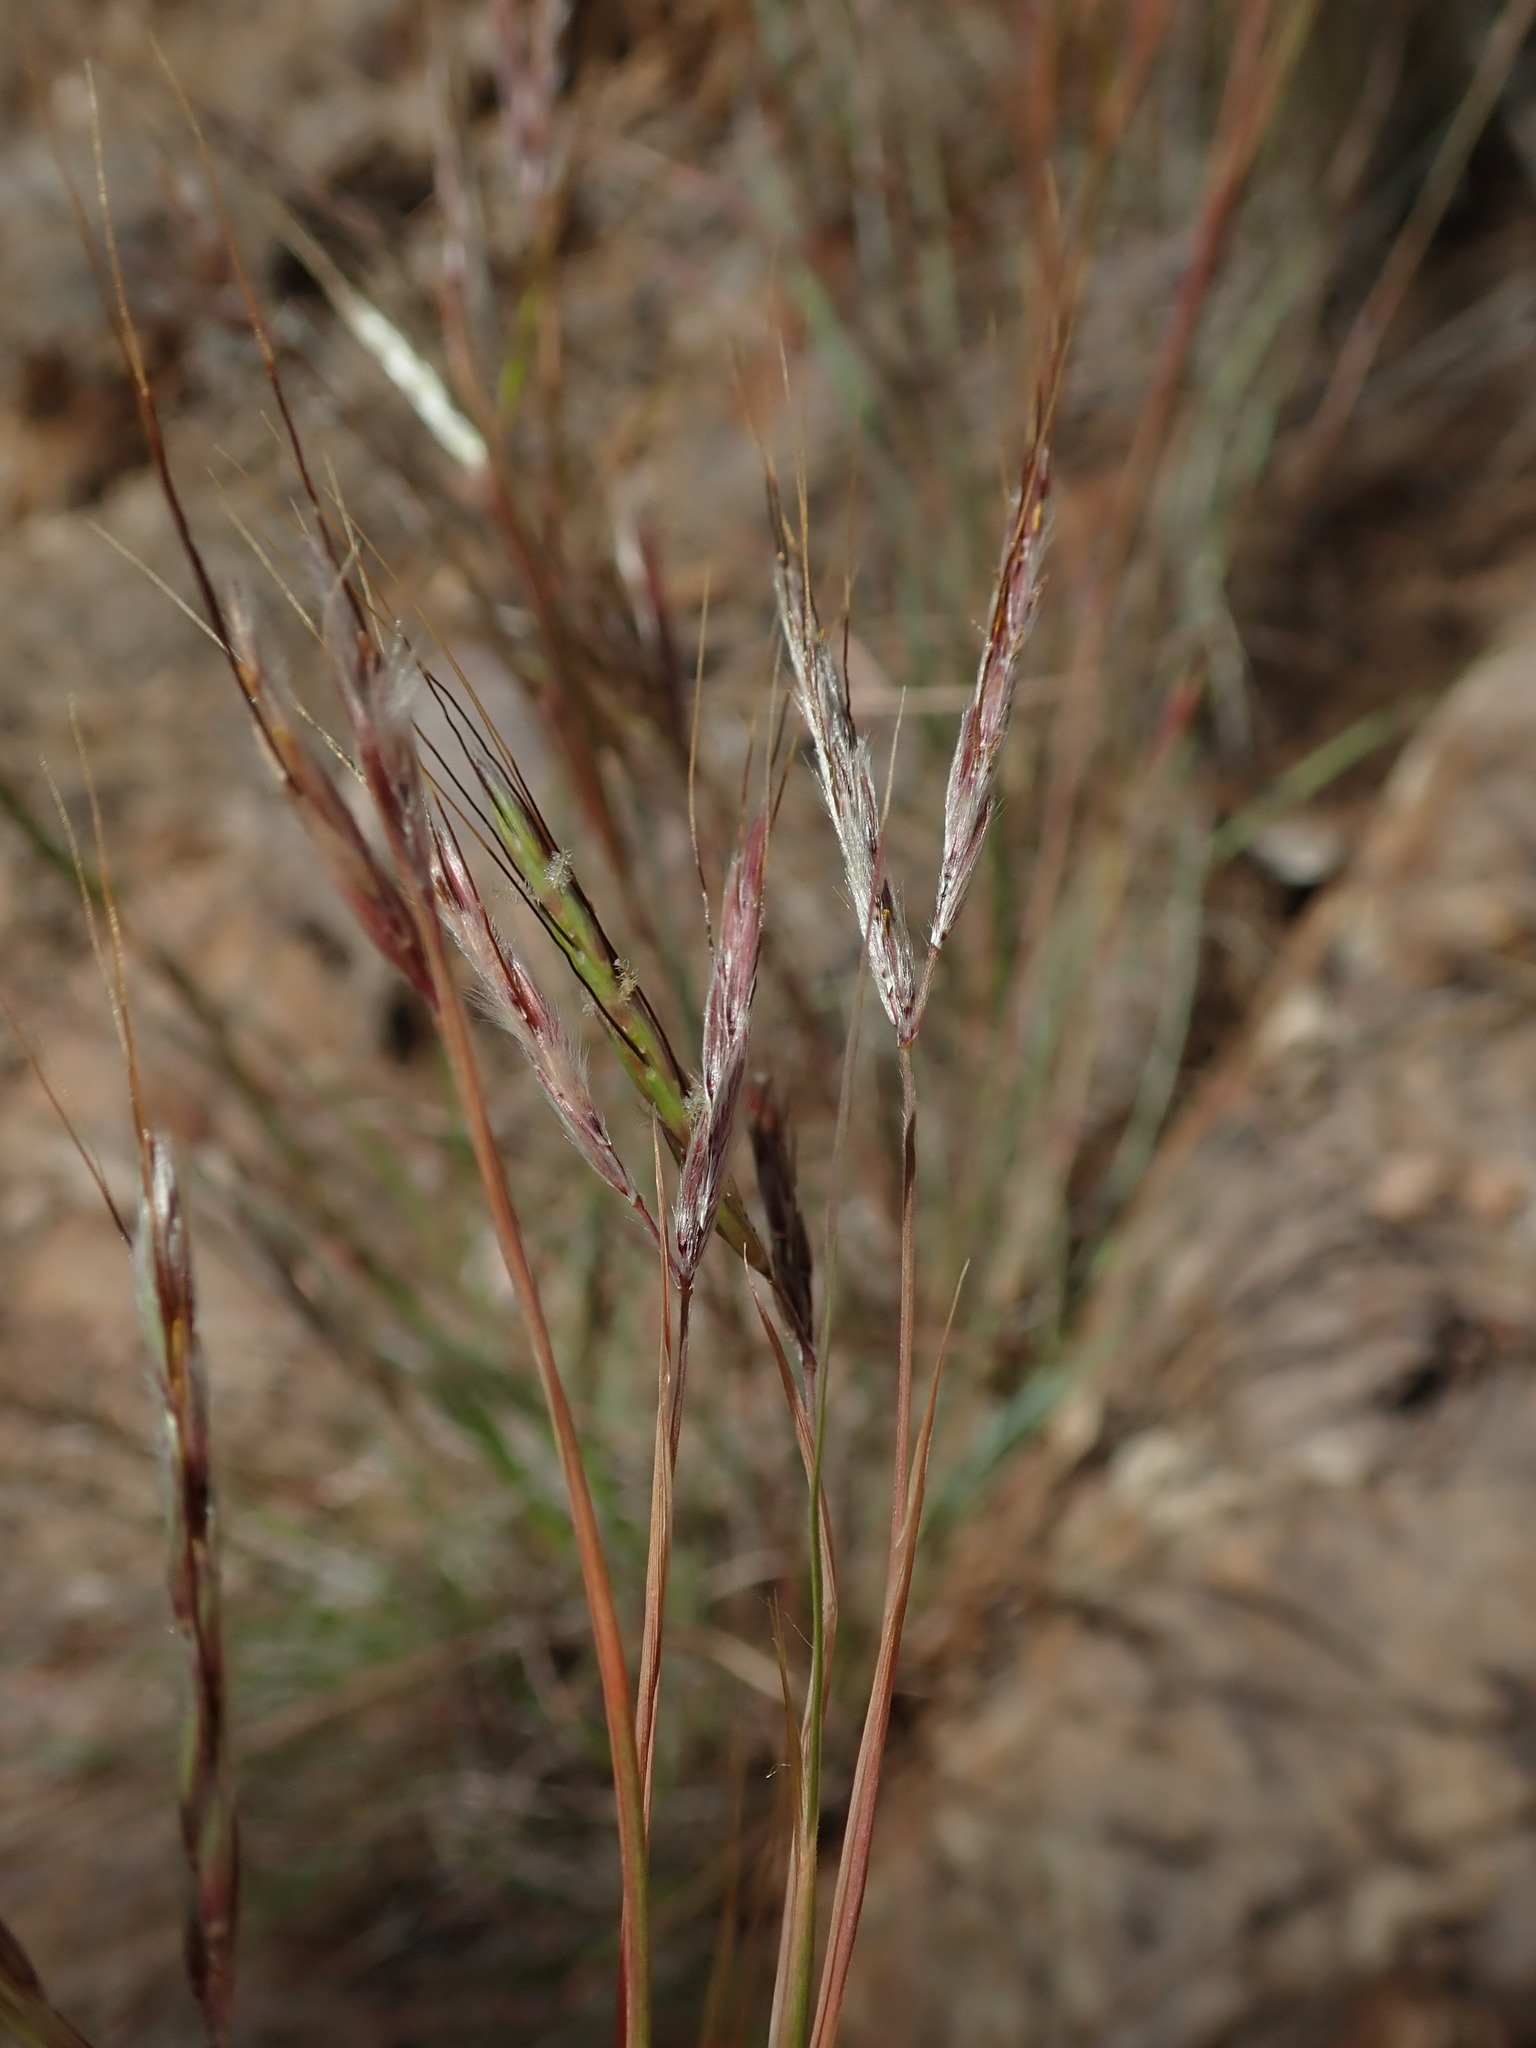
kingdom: Plantae
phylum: Tracheophyta
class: Liliopsida
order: Poales
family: Poaceae
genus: Hyparrhenia
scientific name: Hyparrhenia hirta
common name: Thatching grass
